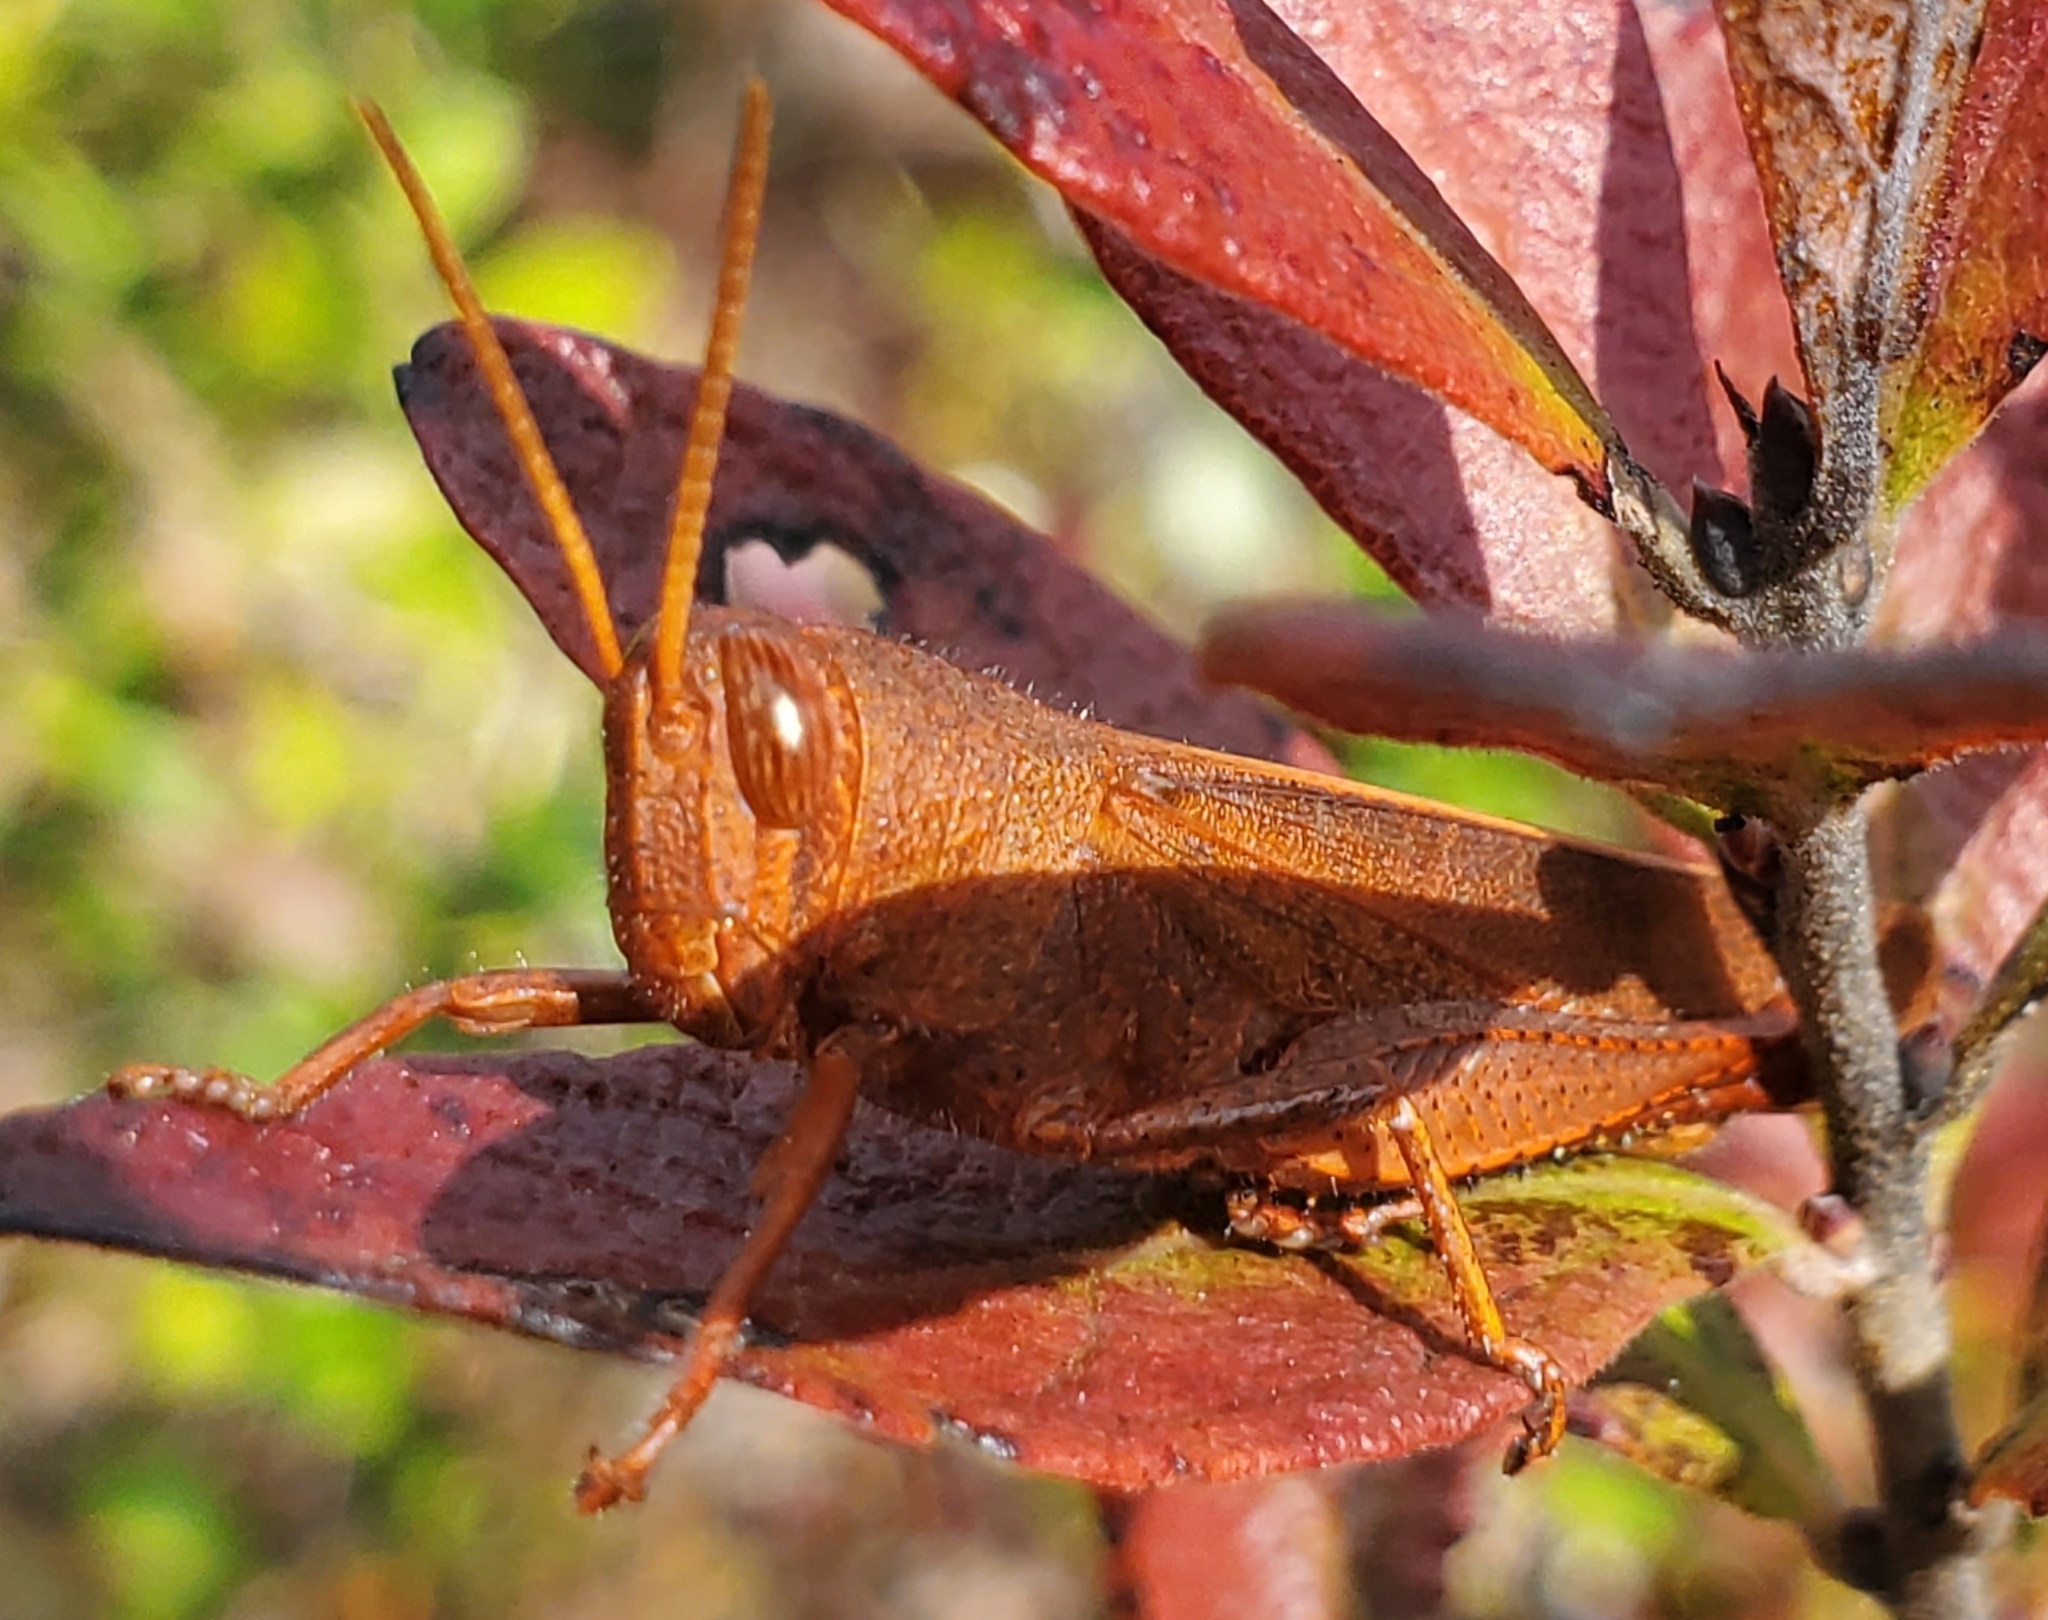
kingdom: Animalia
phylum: Arthropoda
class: Insecta
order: Orthoptera
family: Acrididae
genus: Schistocerca
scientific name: Schistocerca damnifica
